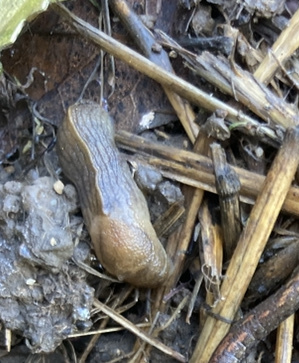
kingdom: Animalia
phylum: Mollusca
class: Gastropoda
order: Stylommatophora
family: Milacidae
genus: Milax
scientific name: Milax gagates
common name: Greenhouse slug
